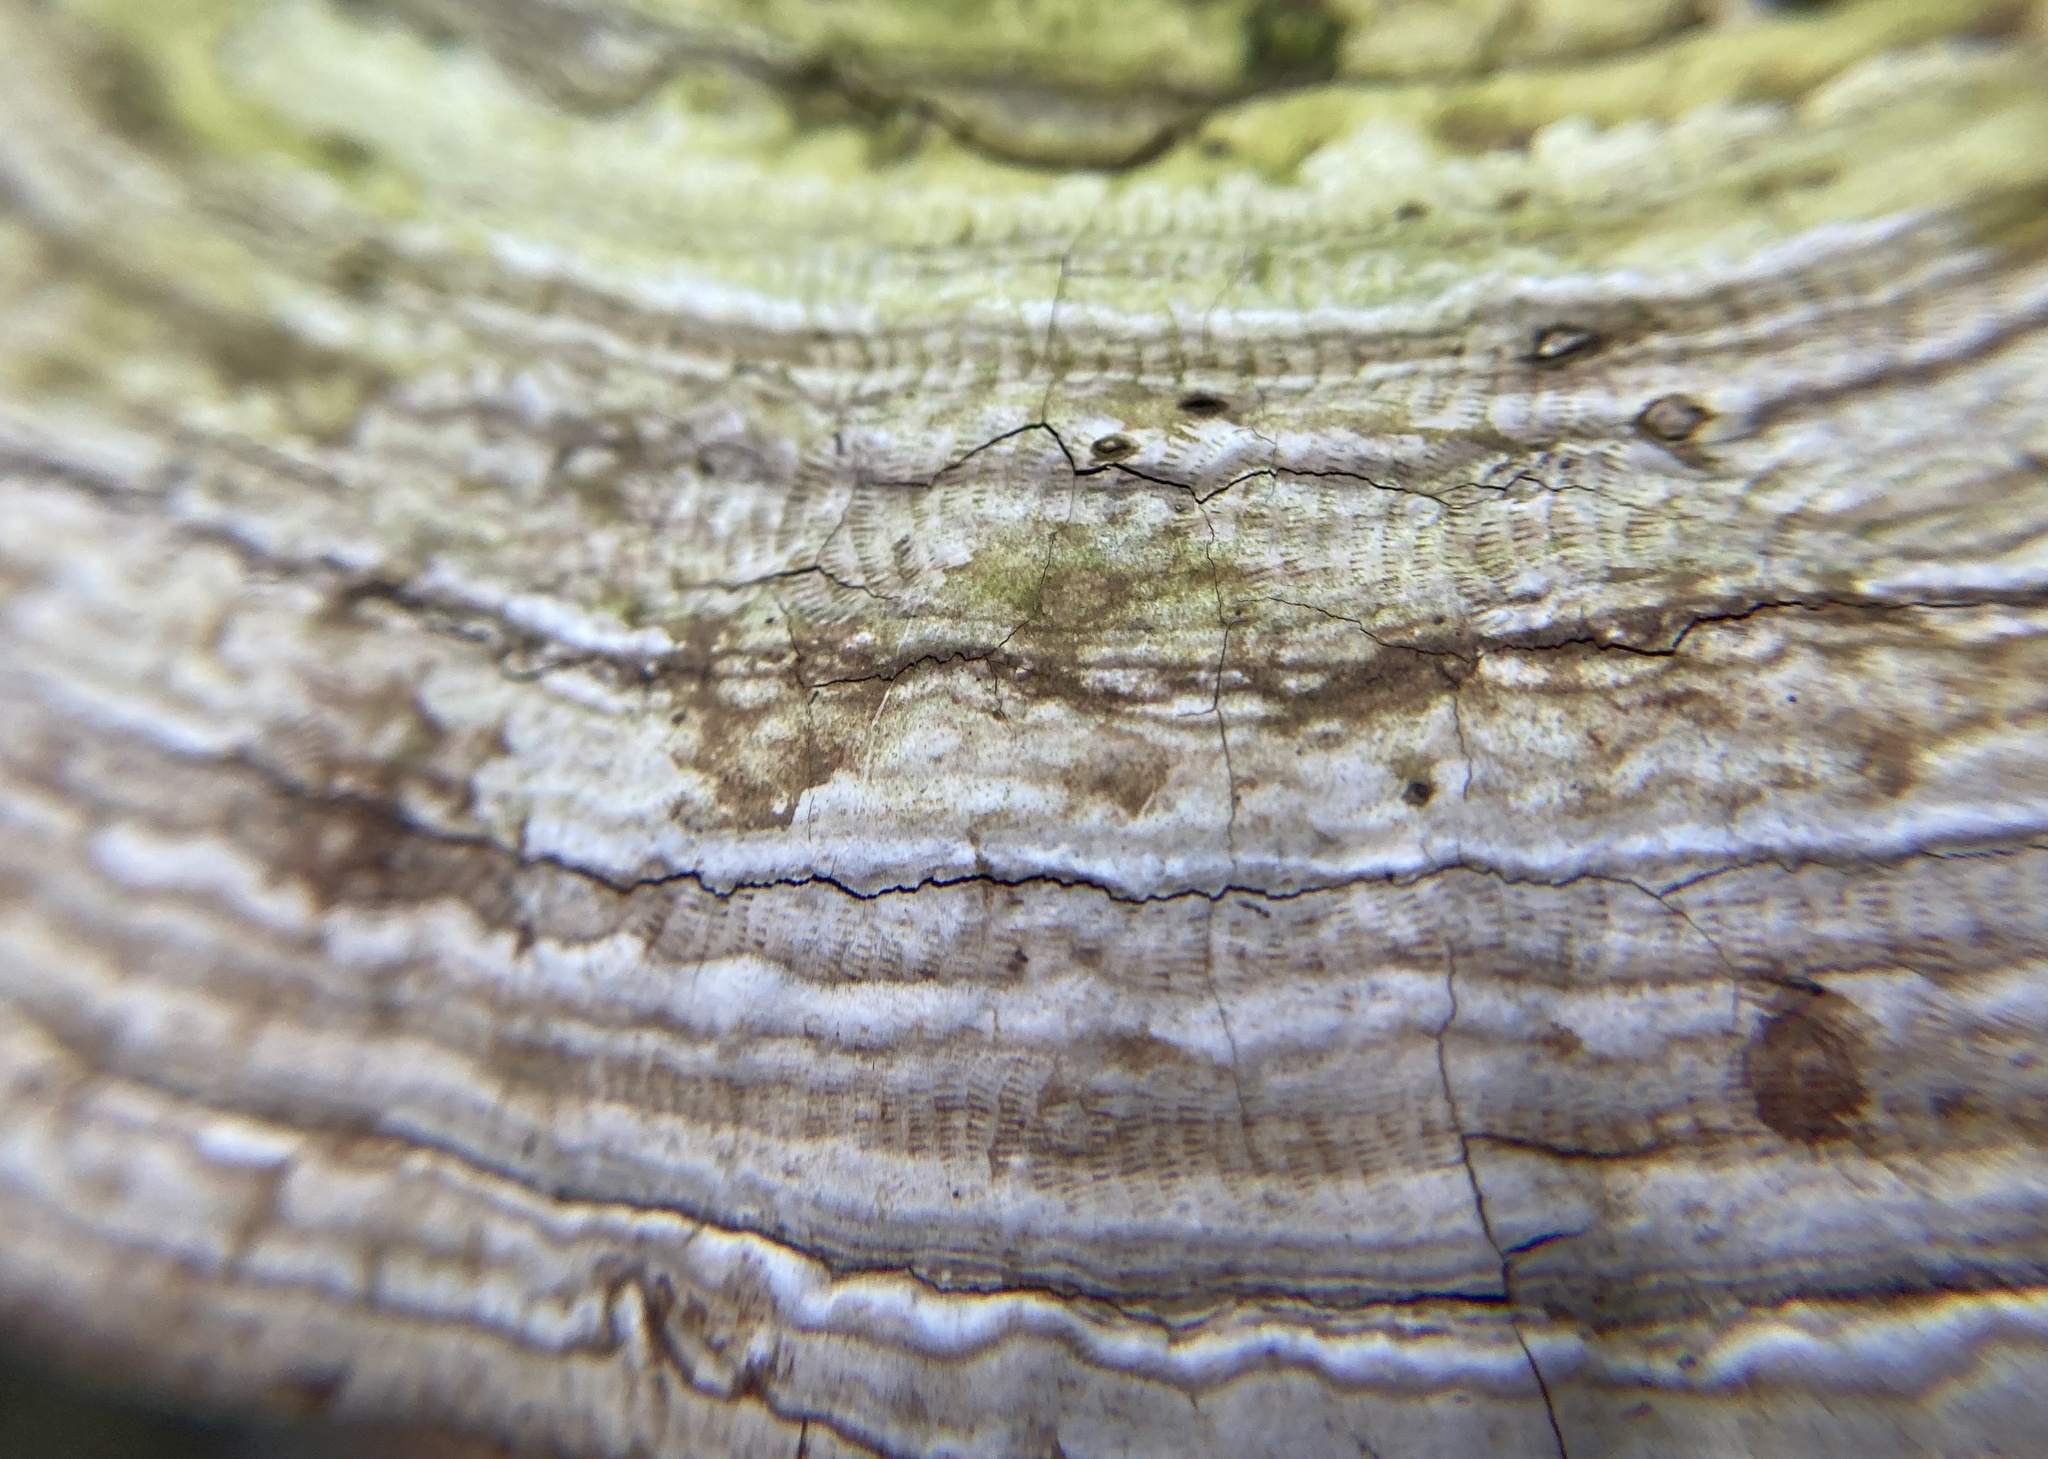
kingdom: Fungi
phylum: Basidiomycota
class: Agaricomycetes
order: Polyporales
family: Polyporaceae
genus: Ganoderma
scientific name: Ganoderma applanatum
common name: Artist's bracket
